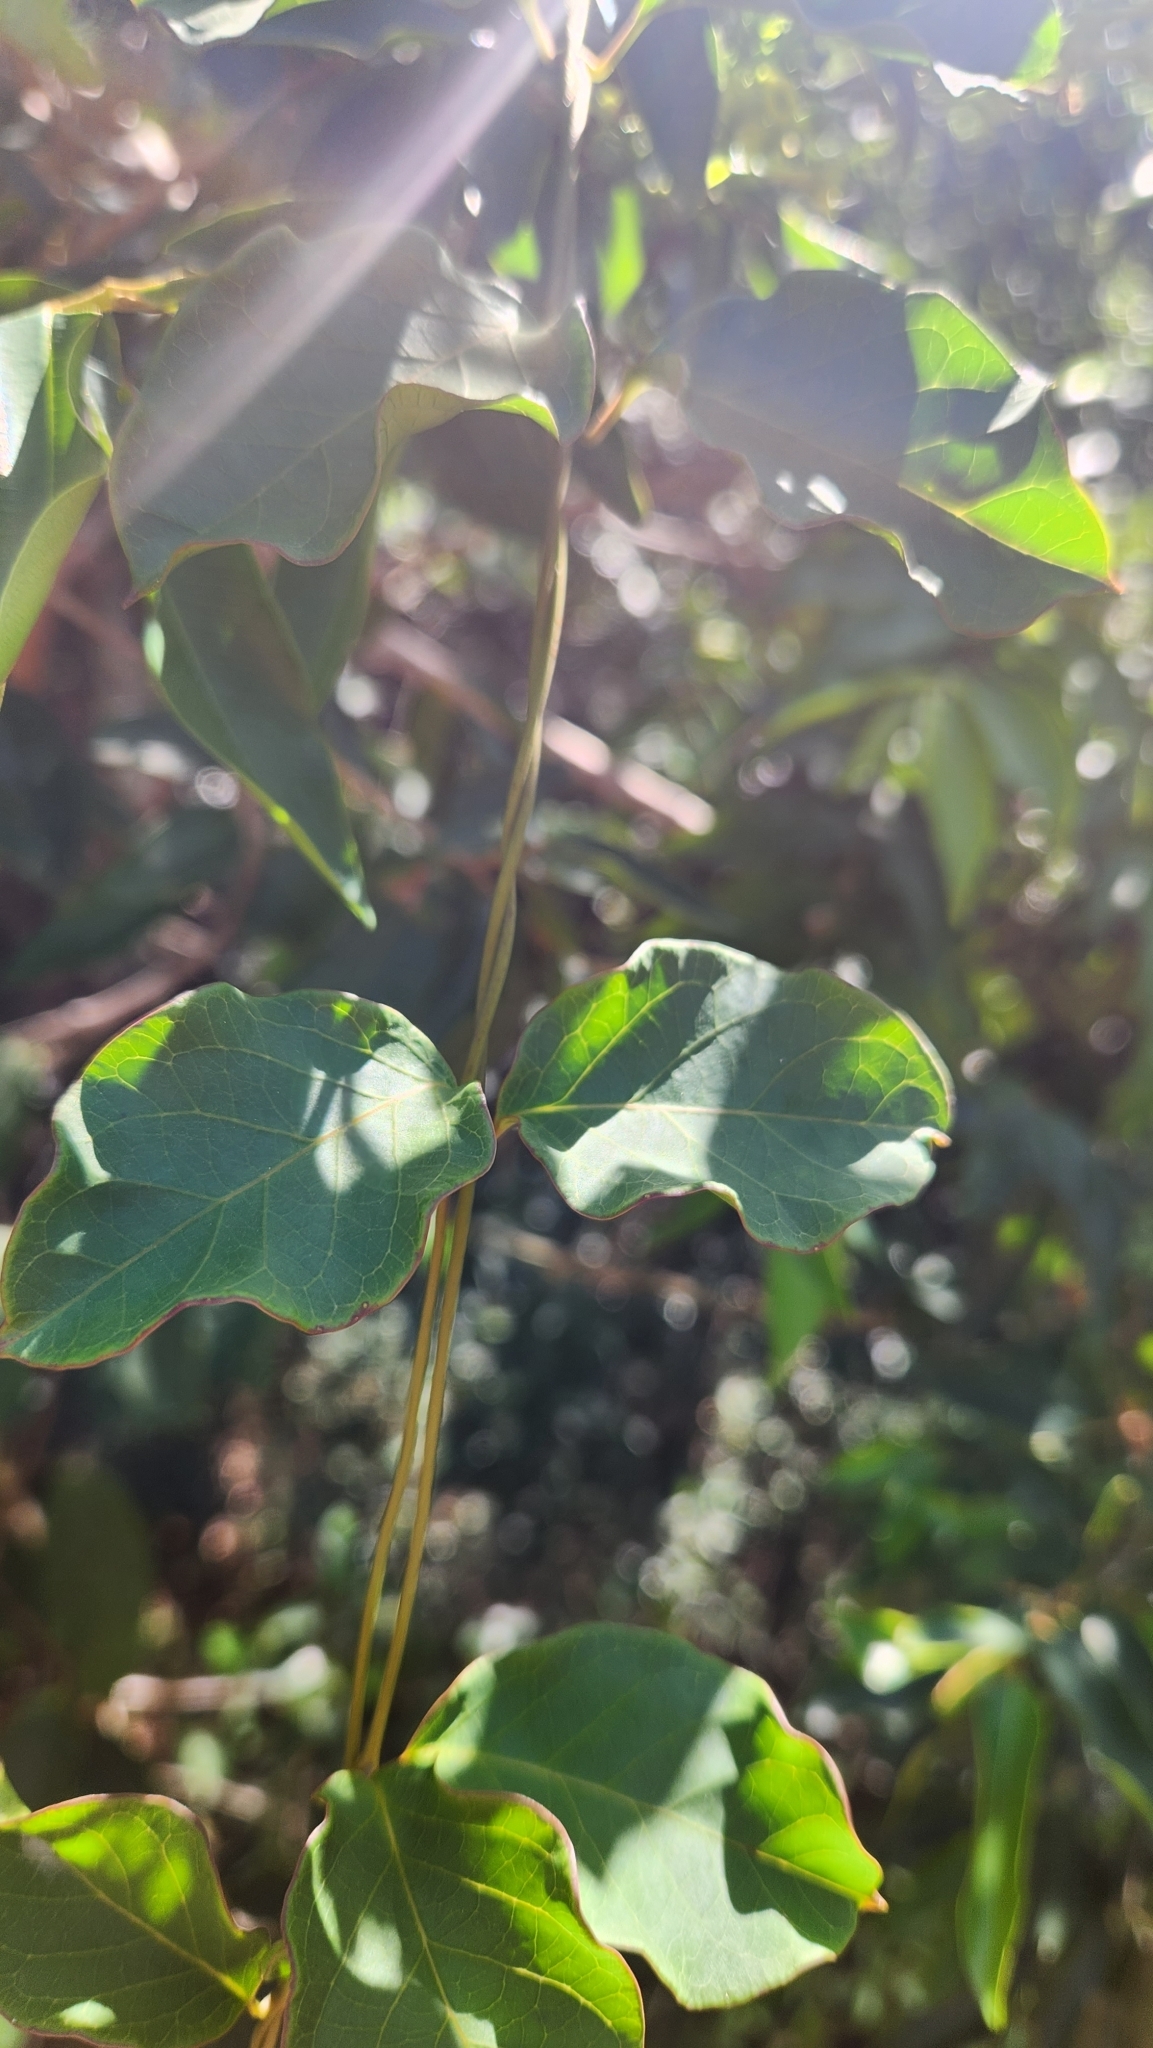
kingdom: Plantae
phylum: Tracheophyta
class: Magnoliopsida
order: Gentianales
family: Apocynaceae
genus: Prestonia
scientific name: Prestonia cyaniphylla
